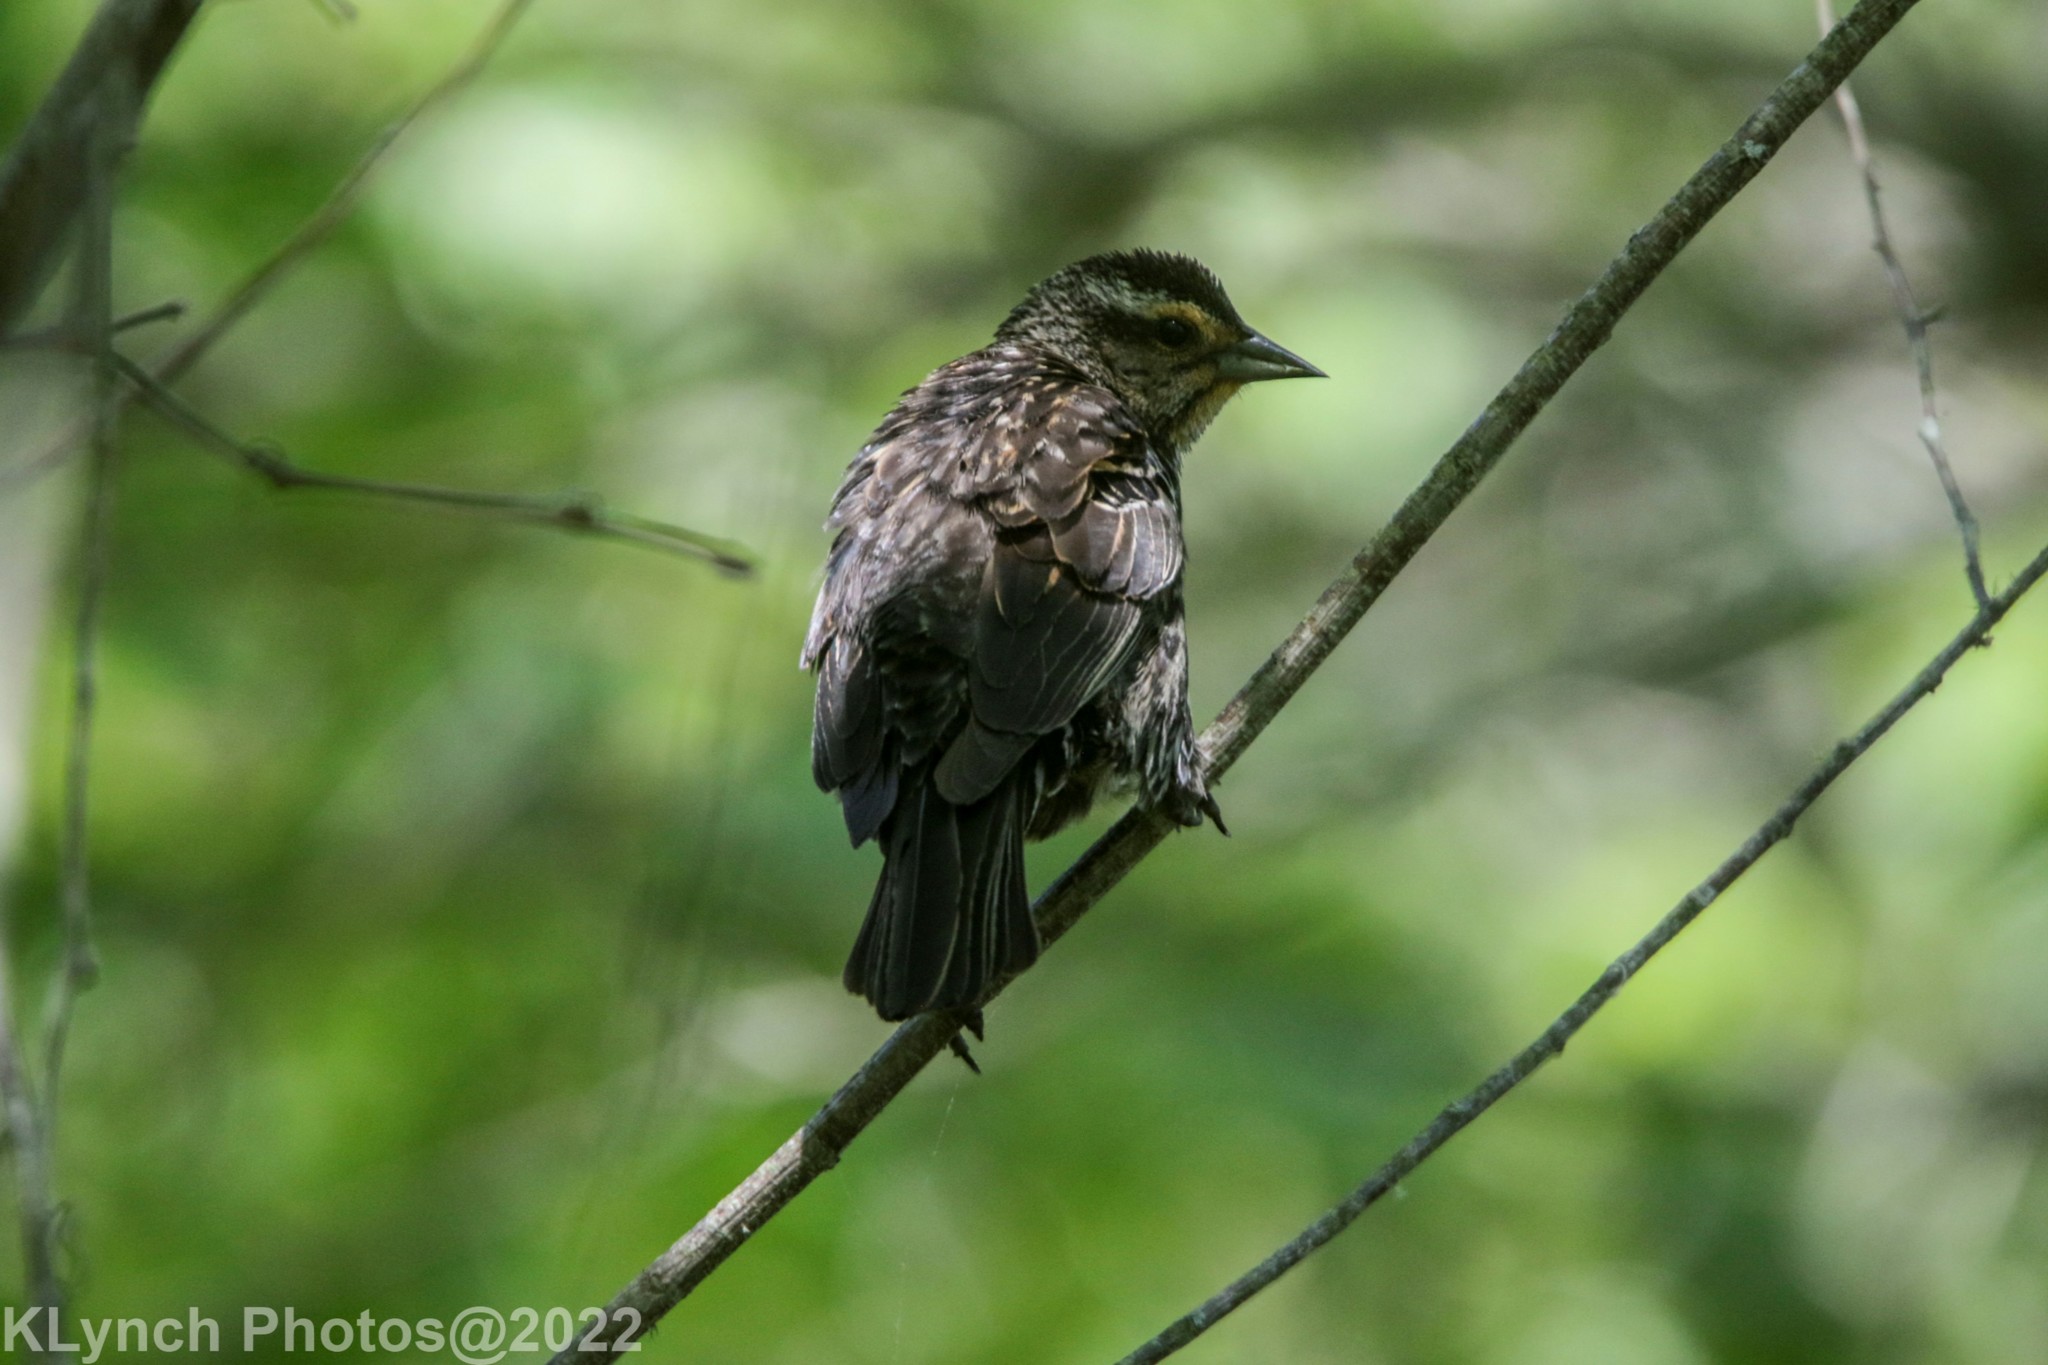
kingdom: Animalia
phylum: Chordata
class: Aves
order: Passeriformes
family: Icteridae
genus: Agelaius
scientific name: Agelaius phoeniceus
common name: Red-winged blackbird
